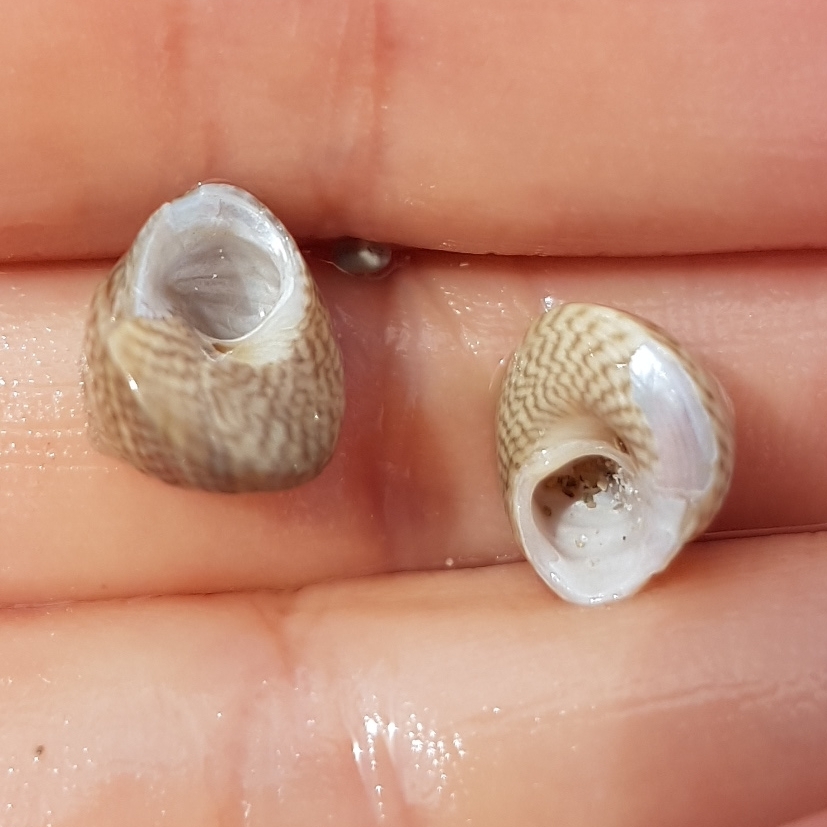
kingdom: Animalia
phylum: Mollusca
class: Gastropoda
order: Trochida
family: Trochidae
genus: Steromphala
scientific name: Steromphala cineraria
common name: Grey top shell
